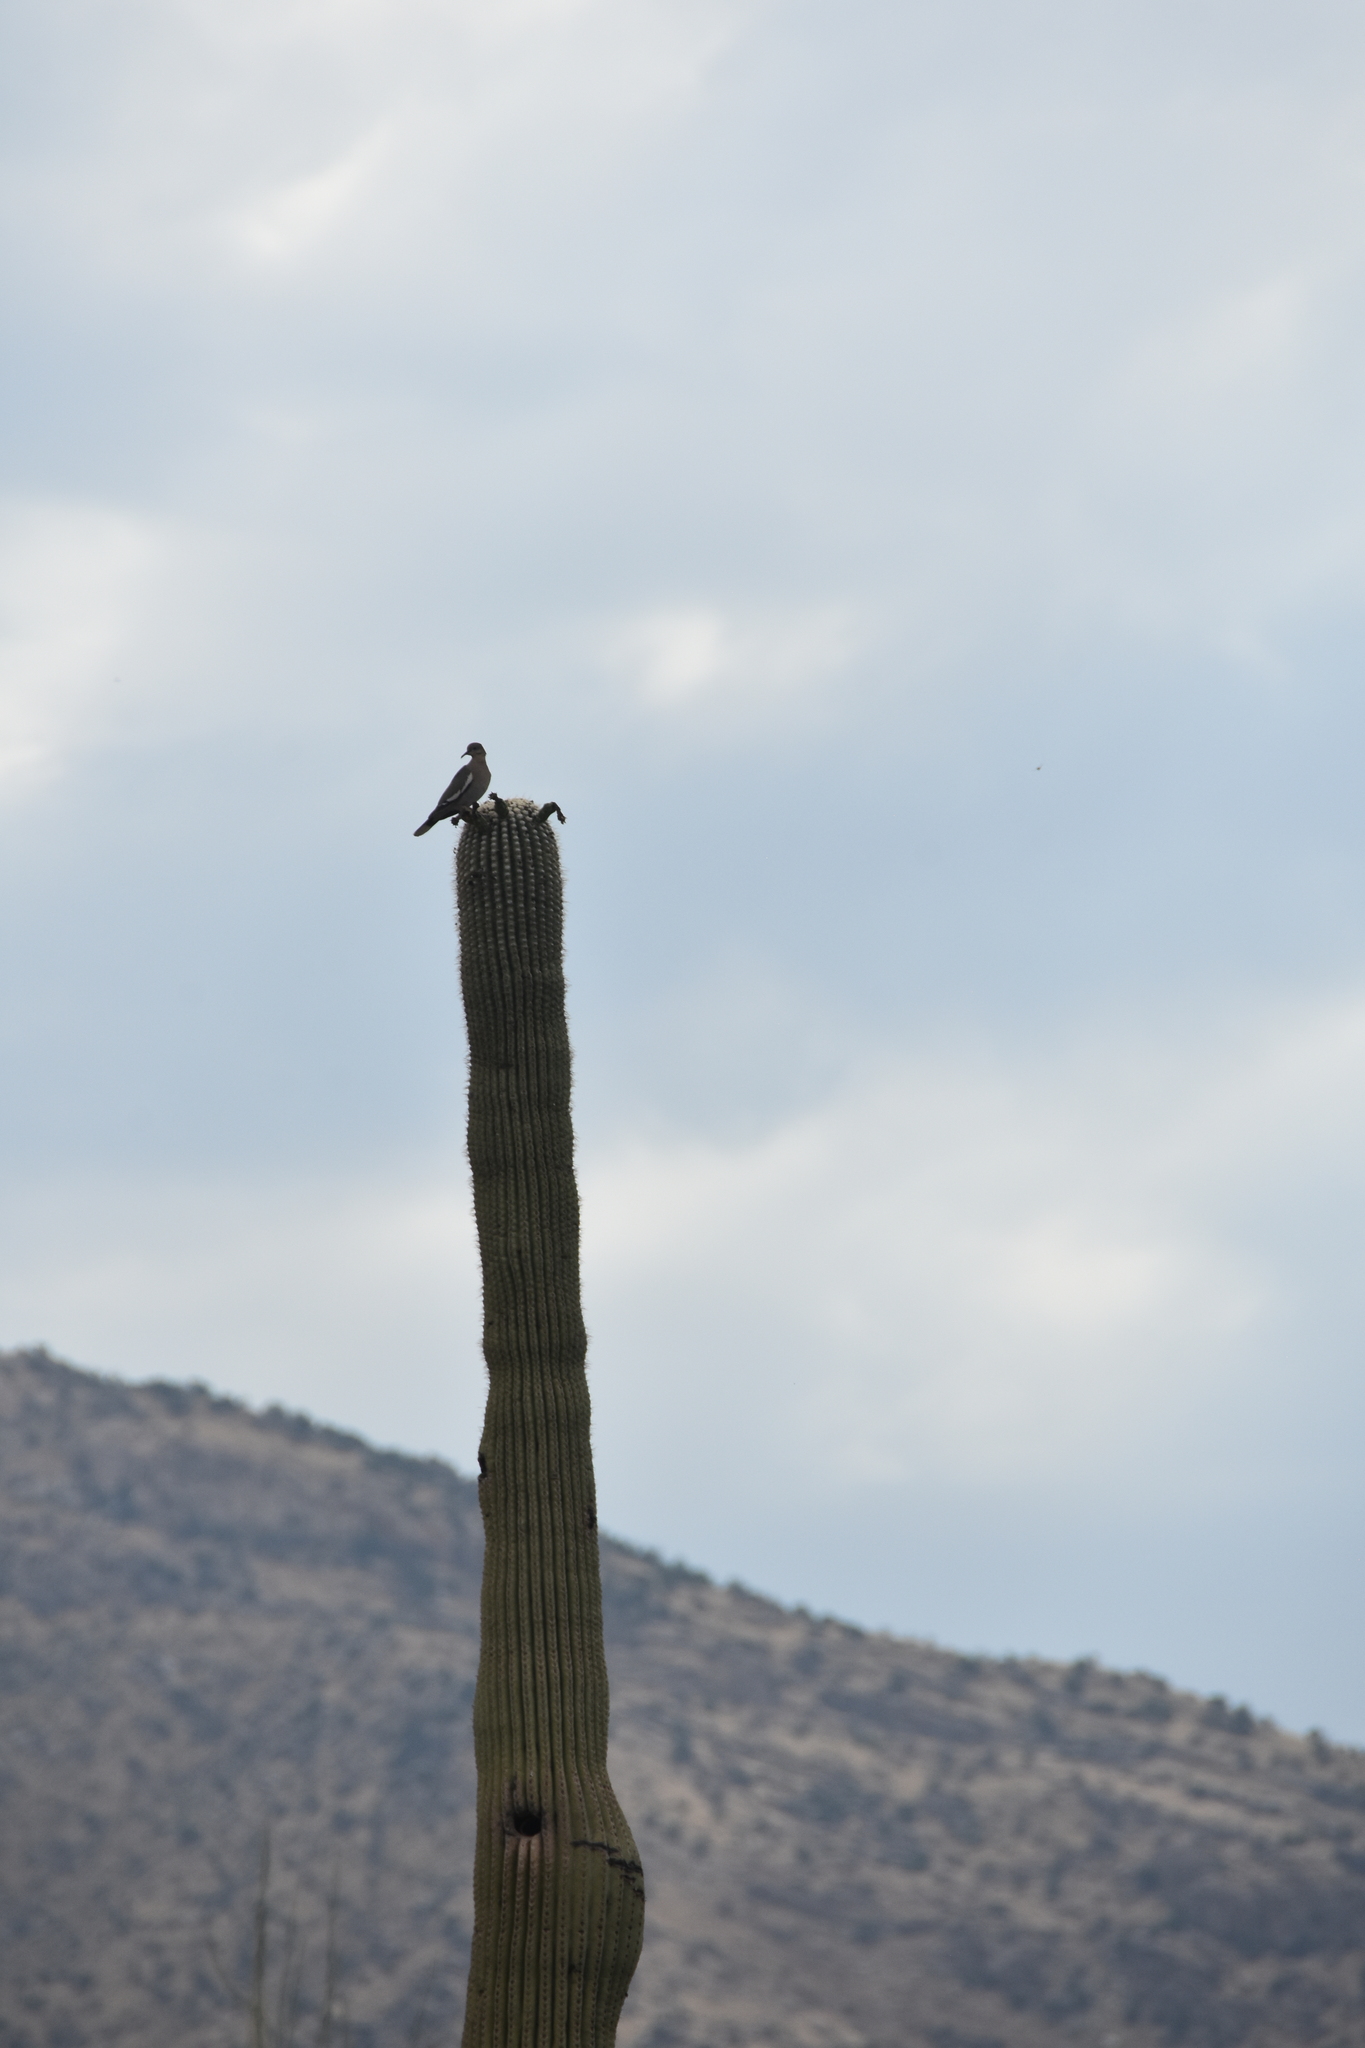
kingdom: Animalia
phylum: Chordata
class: Aves
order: Columbiformes
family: Columbidae
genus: Zenaida
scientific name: Zenaida asiatica
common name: White-winged dove
